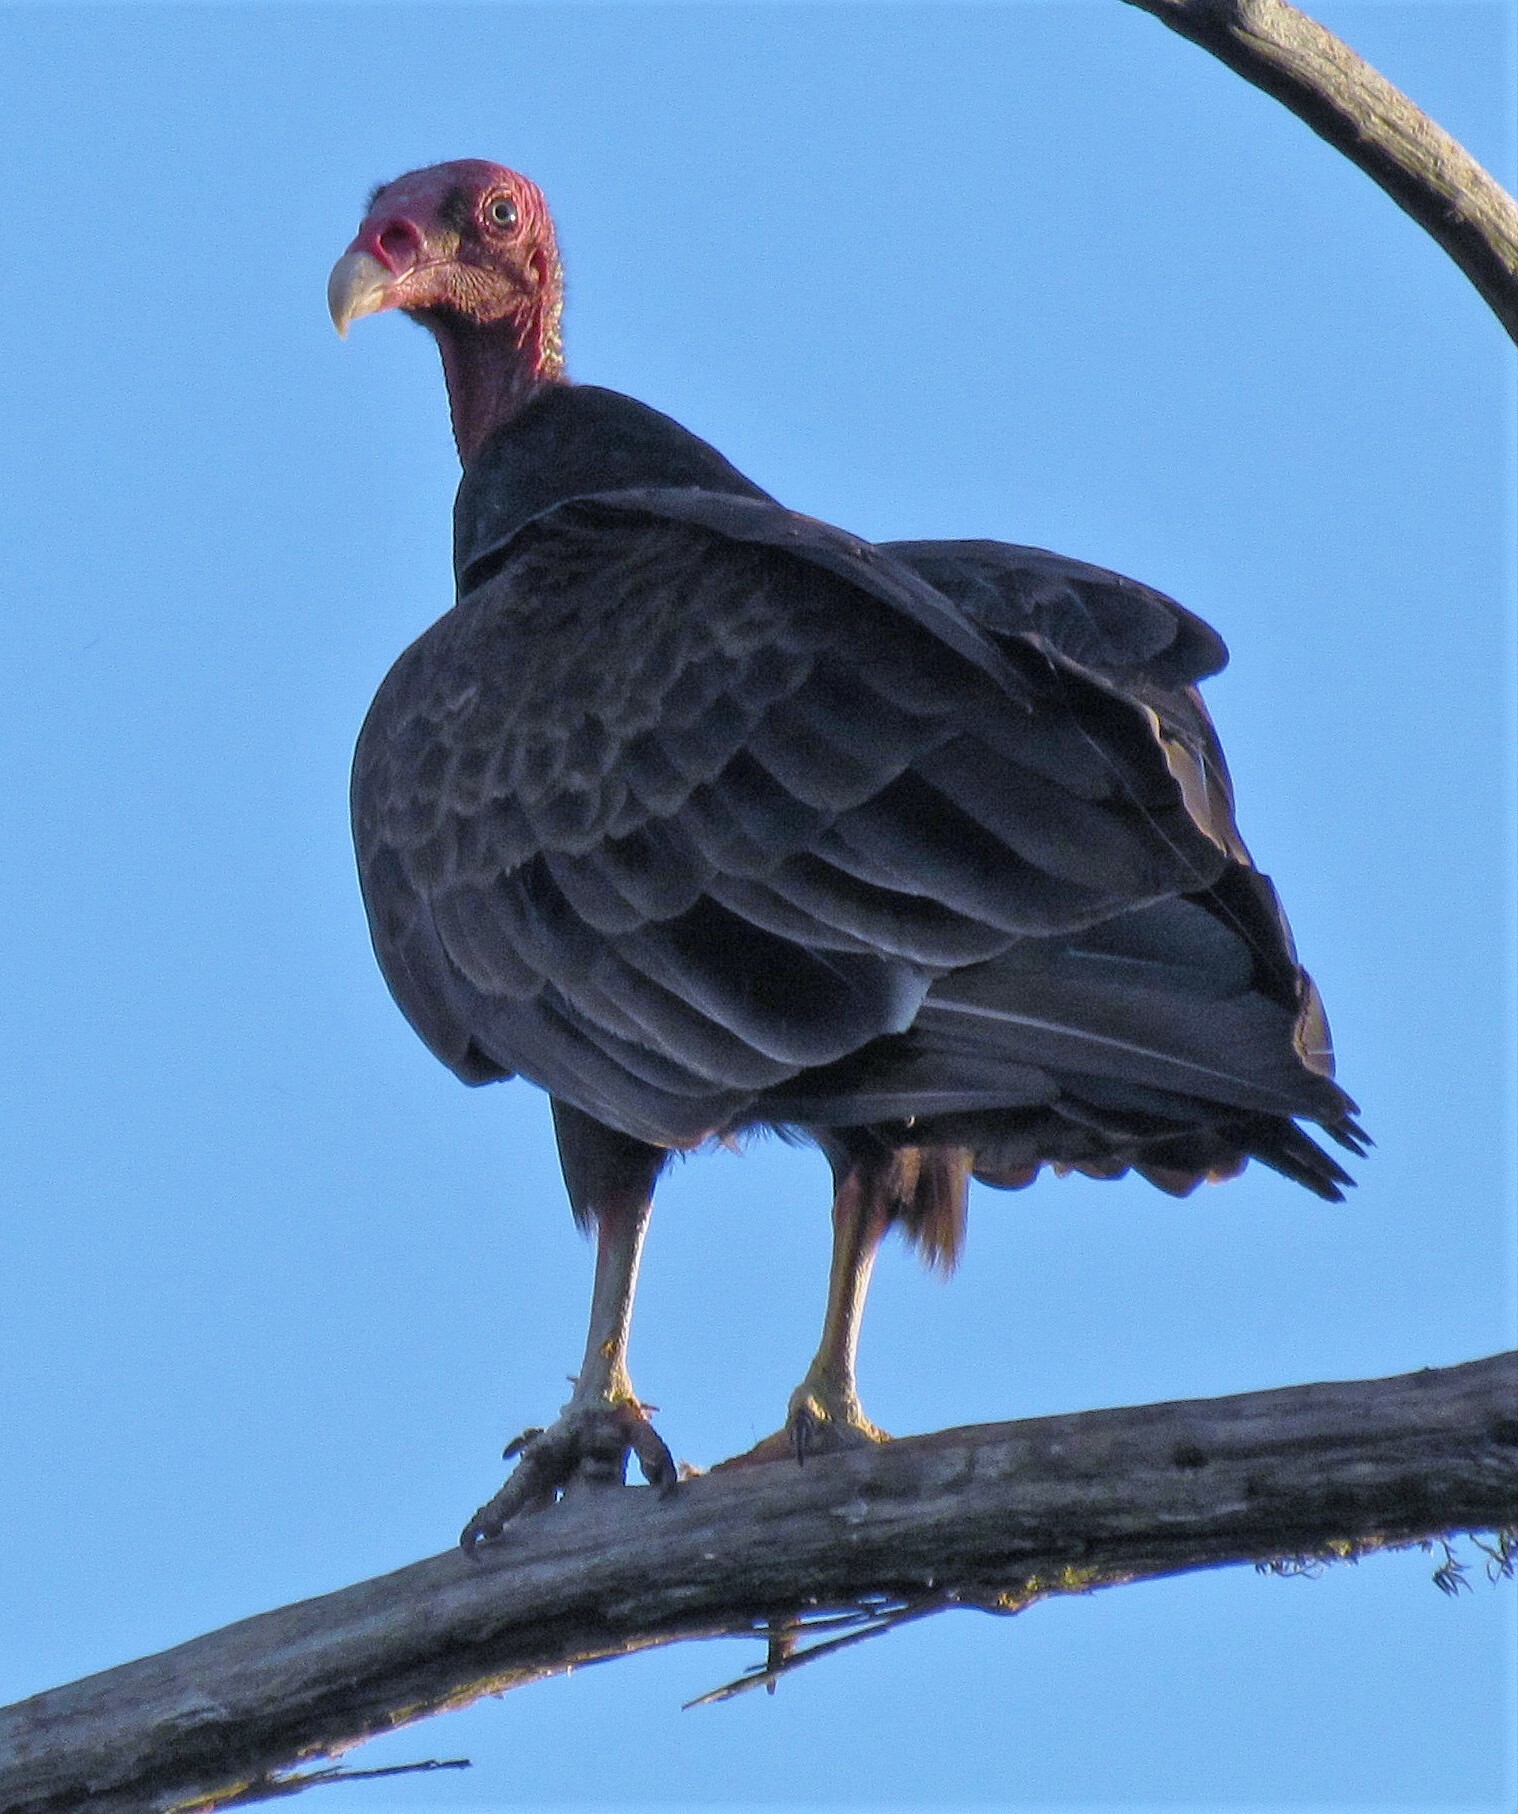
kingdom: Animalia
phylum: Chordata
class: Aves
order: Accipitriformes
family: Cathartidae
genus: Cathartes
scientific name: Cathartes aura
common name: Turkey vulture
